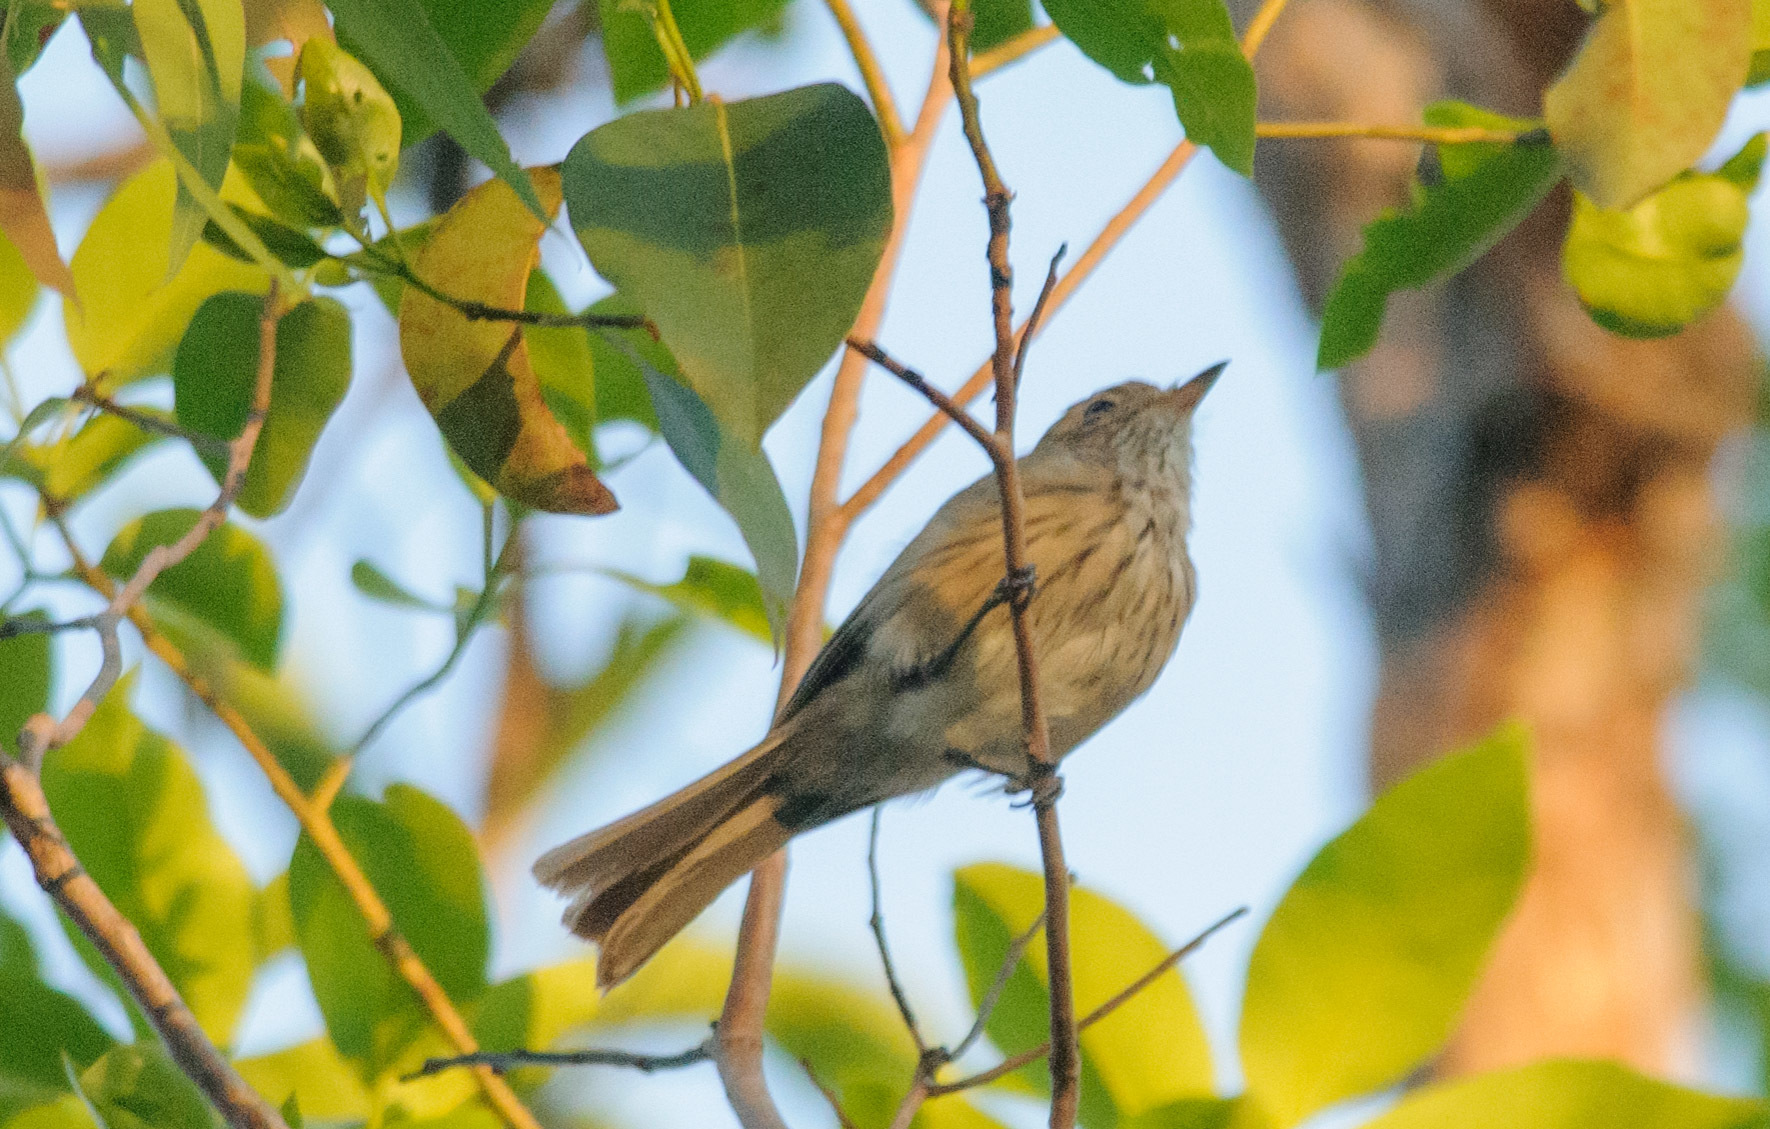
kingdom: Animalia
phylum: Chordata
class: Aves
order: Passeriformes
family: Pachycephalidae
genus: Pachycephala
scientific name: Pachycephala rufiventris
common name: Rufous whistler
